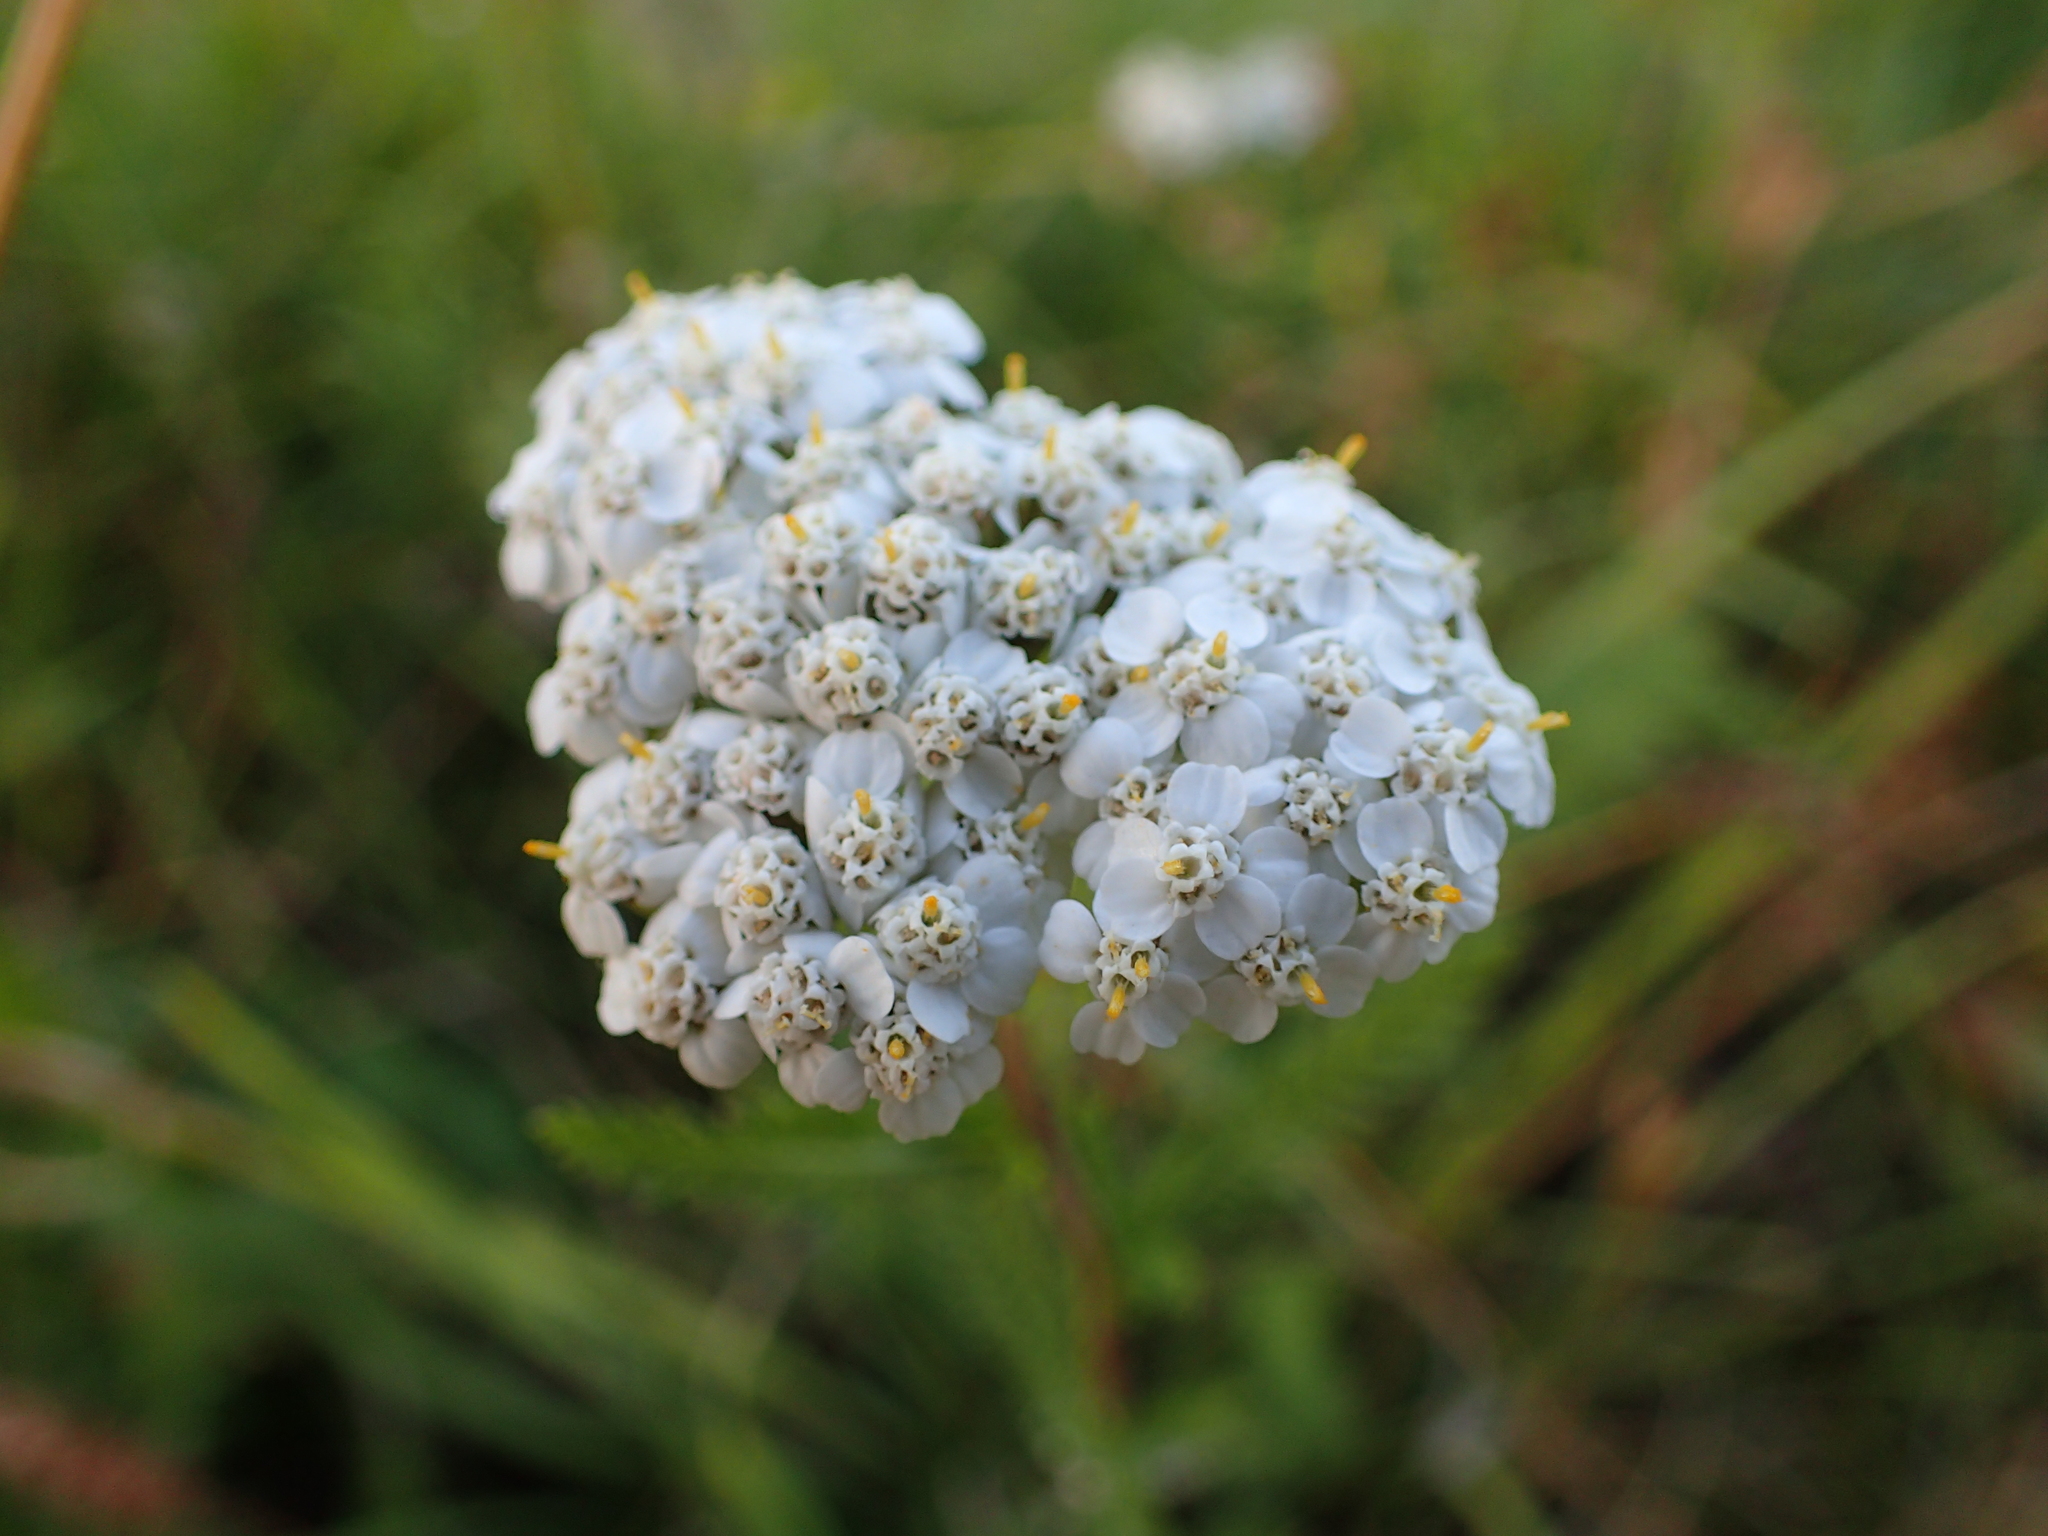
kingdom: Plantae
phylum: Tracheophyta
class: Magnoliopsida
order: Asterales
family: Asteraceae
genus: Achillea
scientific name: Achillea millefolium
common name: Yarrow
